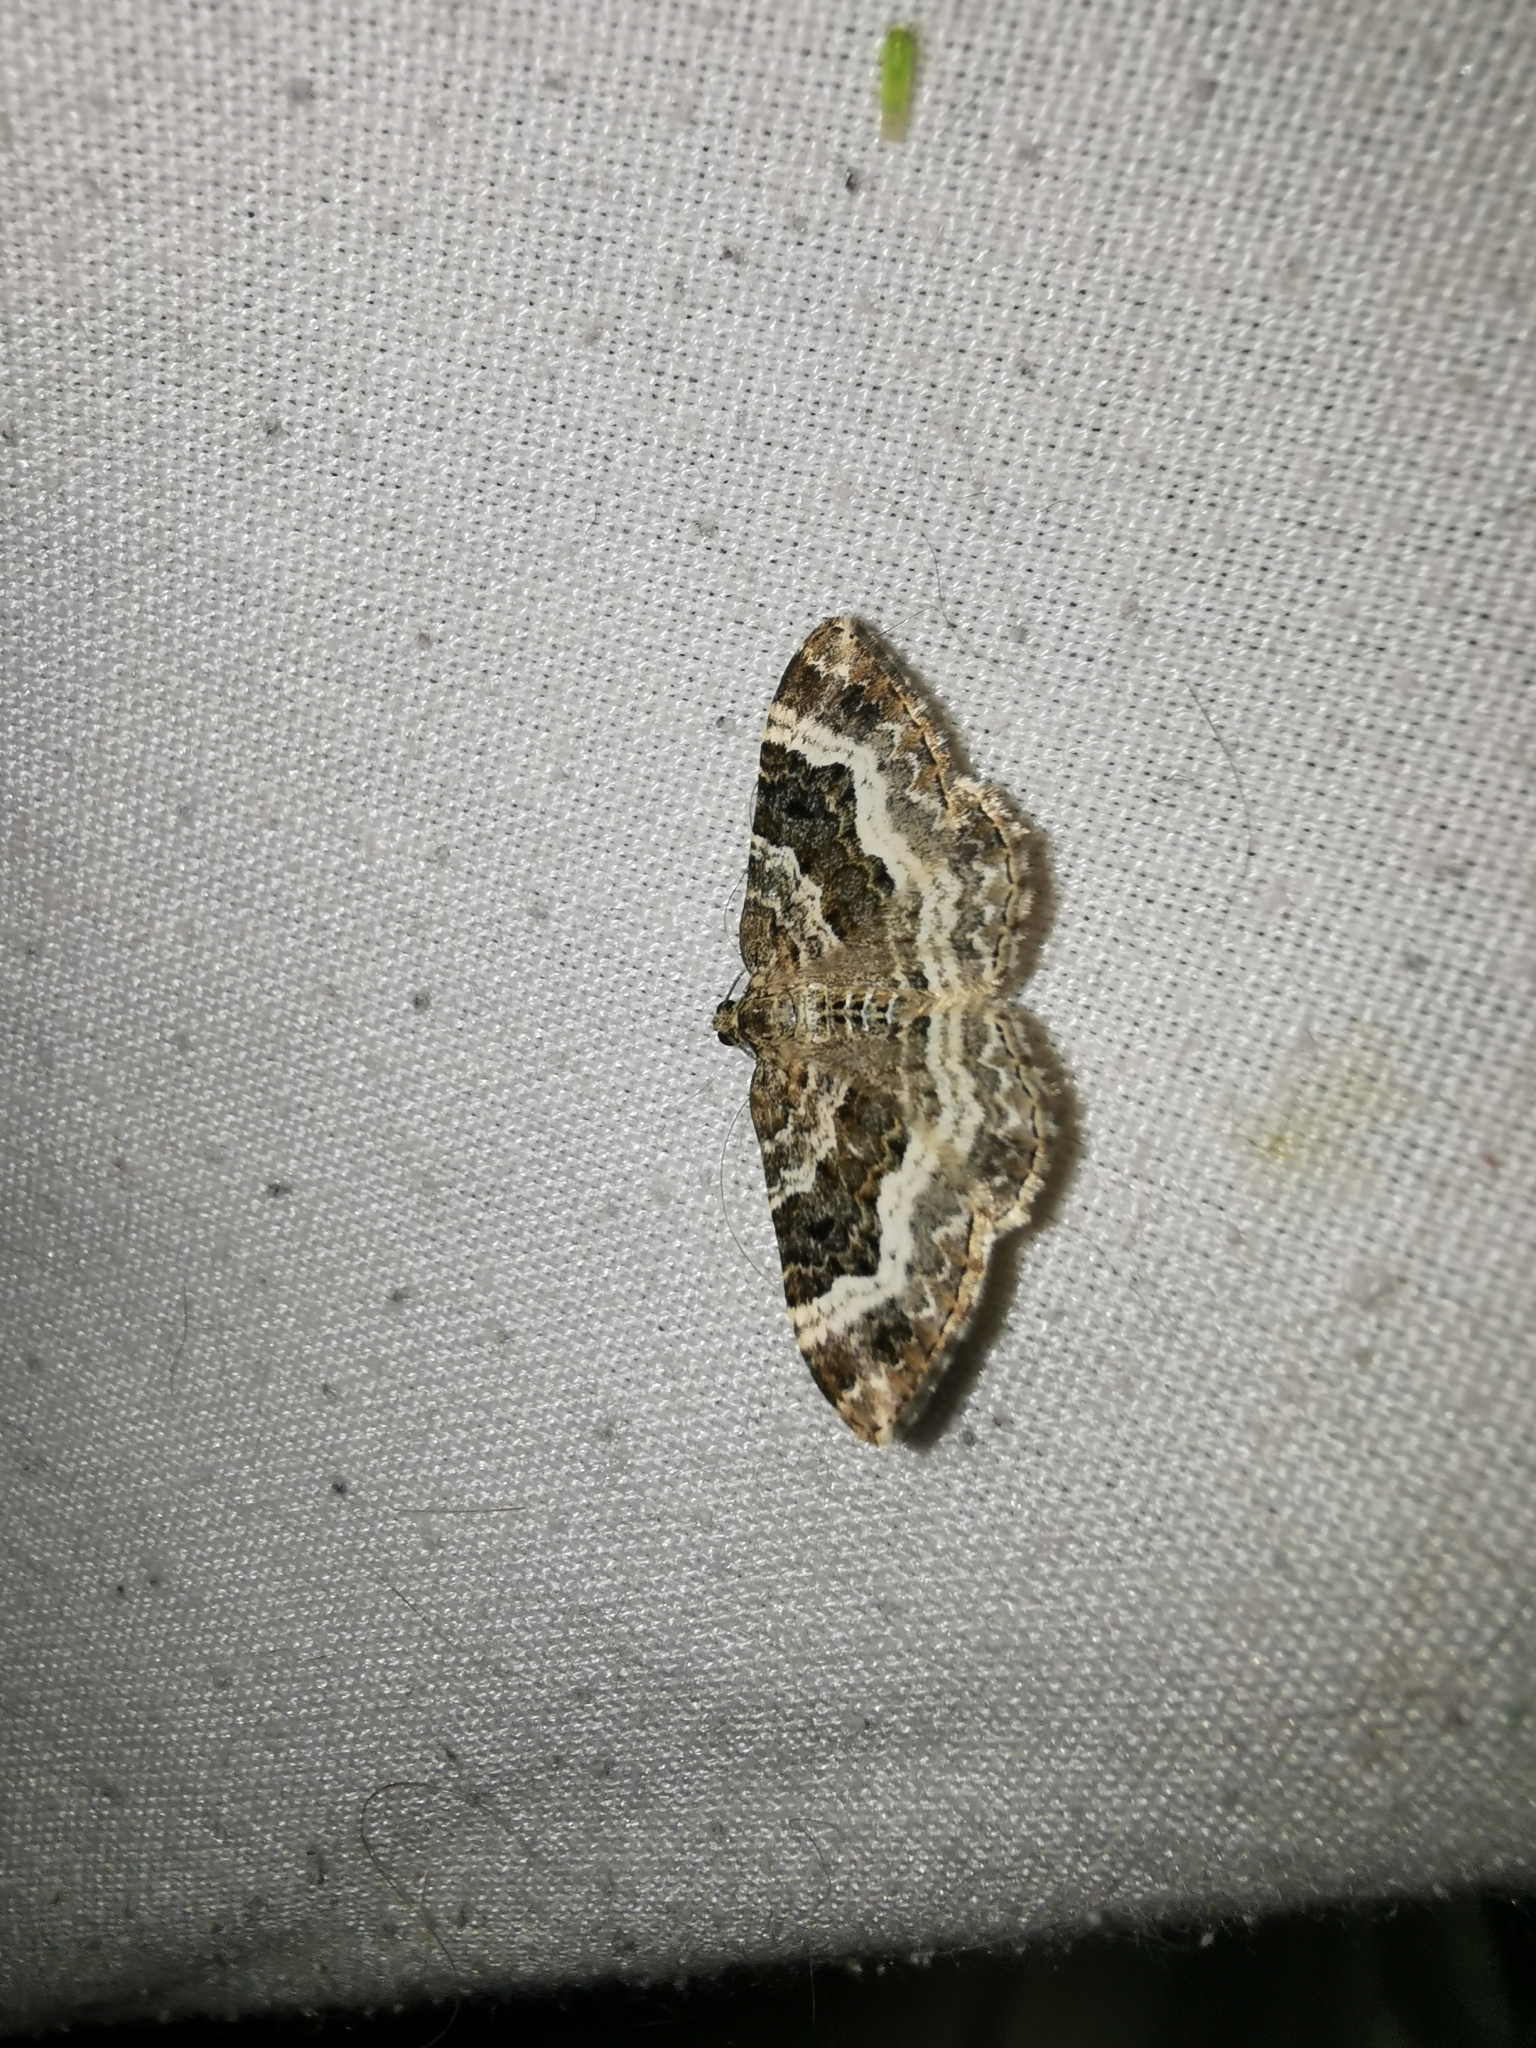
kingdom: Animalia
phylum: Arthropoda
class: Insecta
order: Lepidoptera
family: Geometridae
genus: Epirrhoe
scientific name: Epirrhoe alternata
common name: Common carpet
